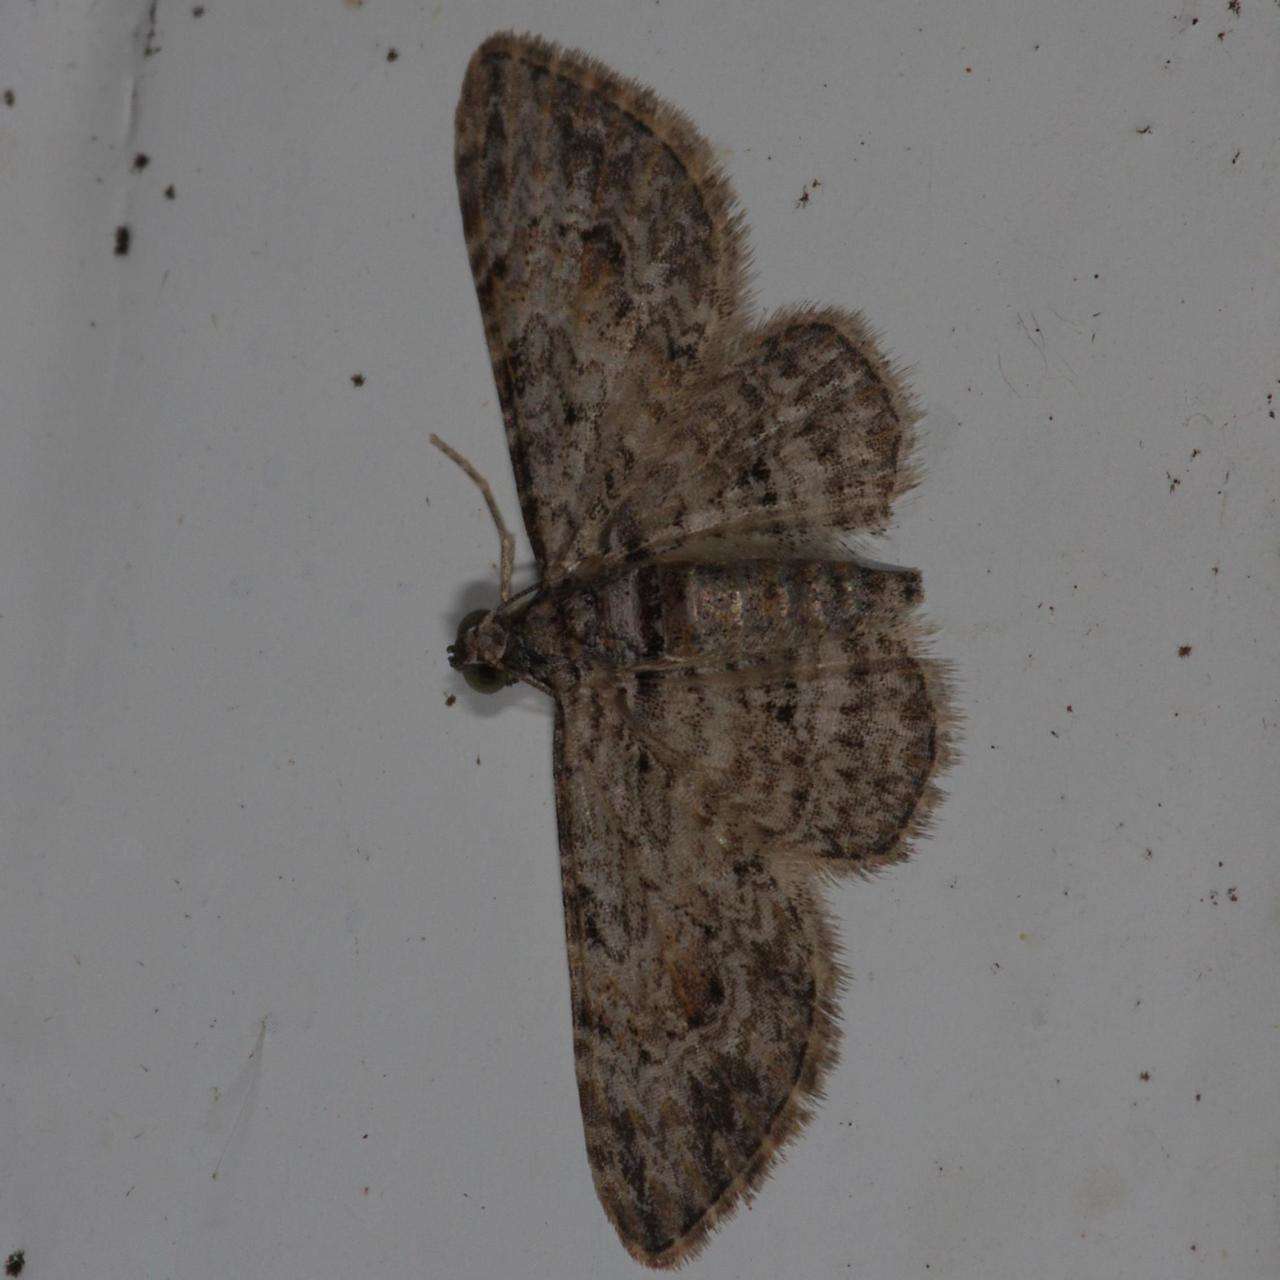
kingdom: Animalia
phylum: Arthropoda
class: Insecta
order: Lepidoptera
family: Geometridae
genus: Chloroclystis
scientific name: Chloroclystis insigillata
